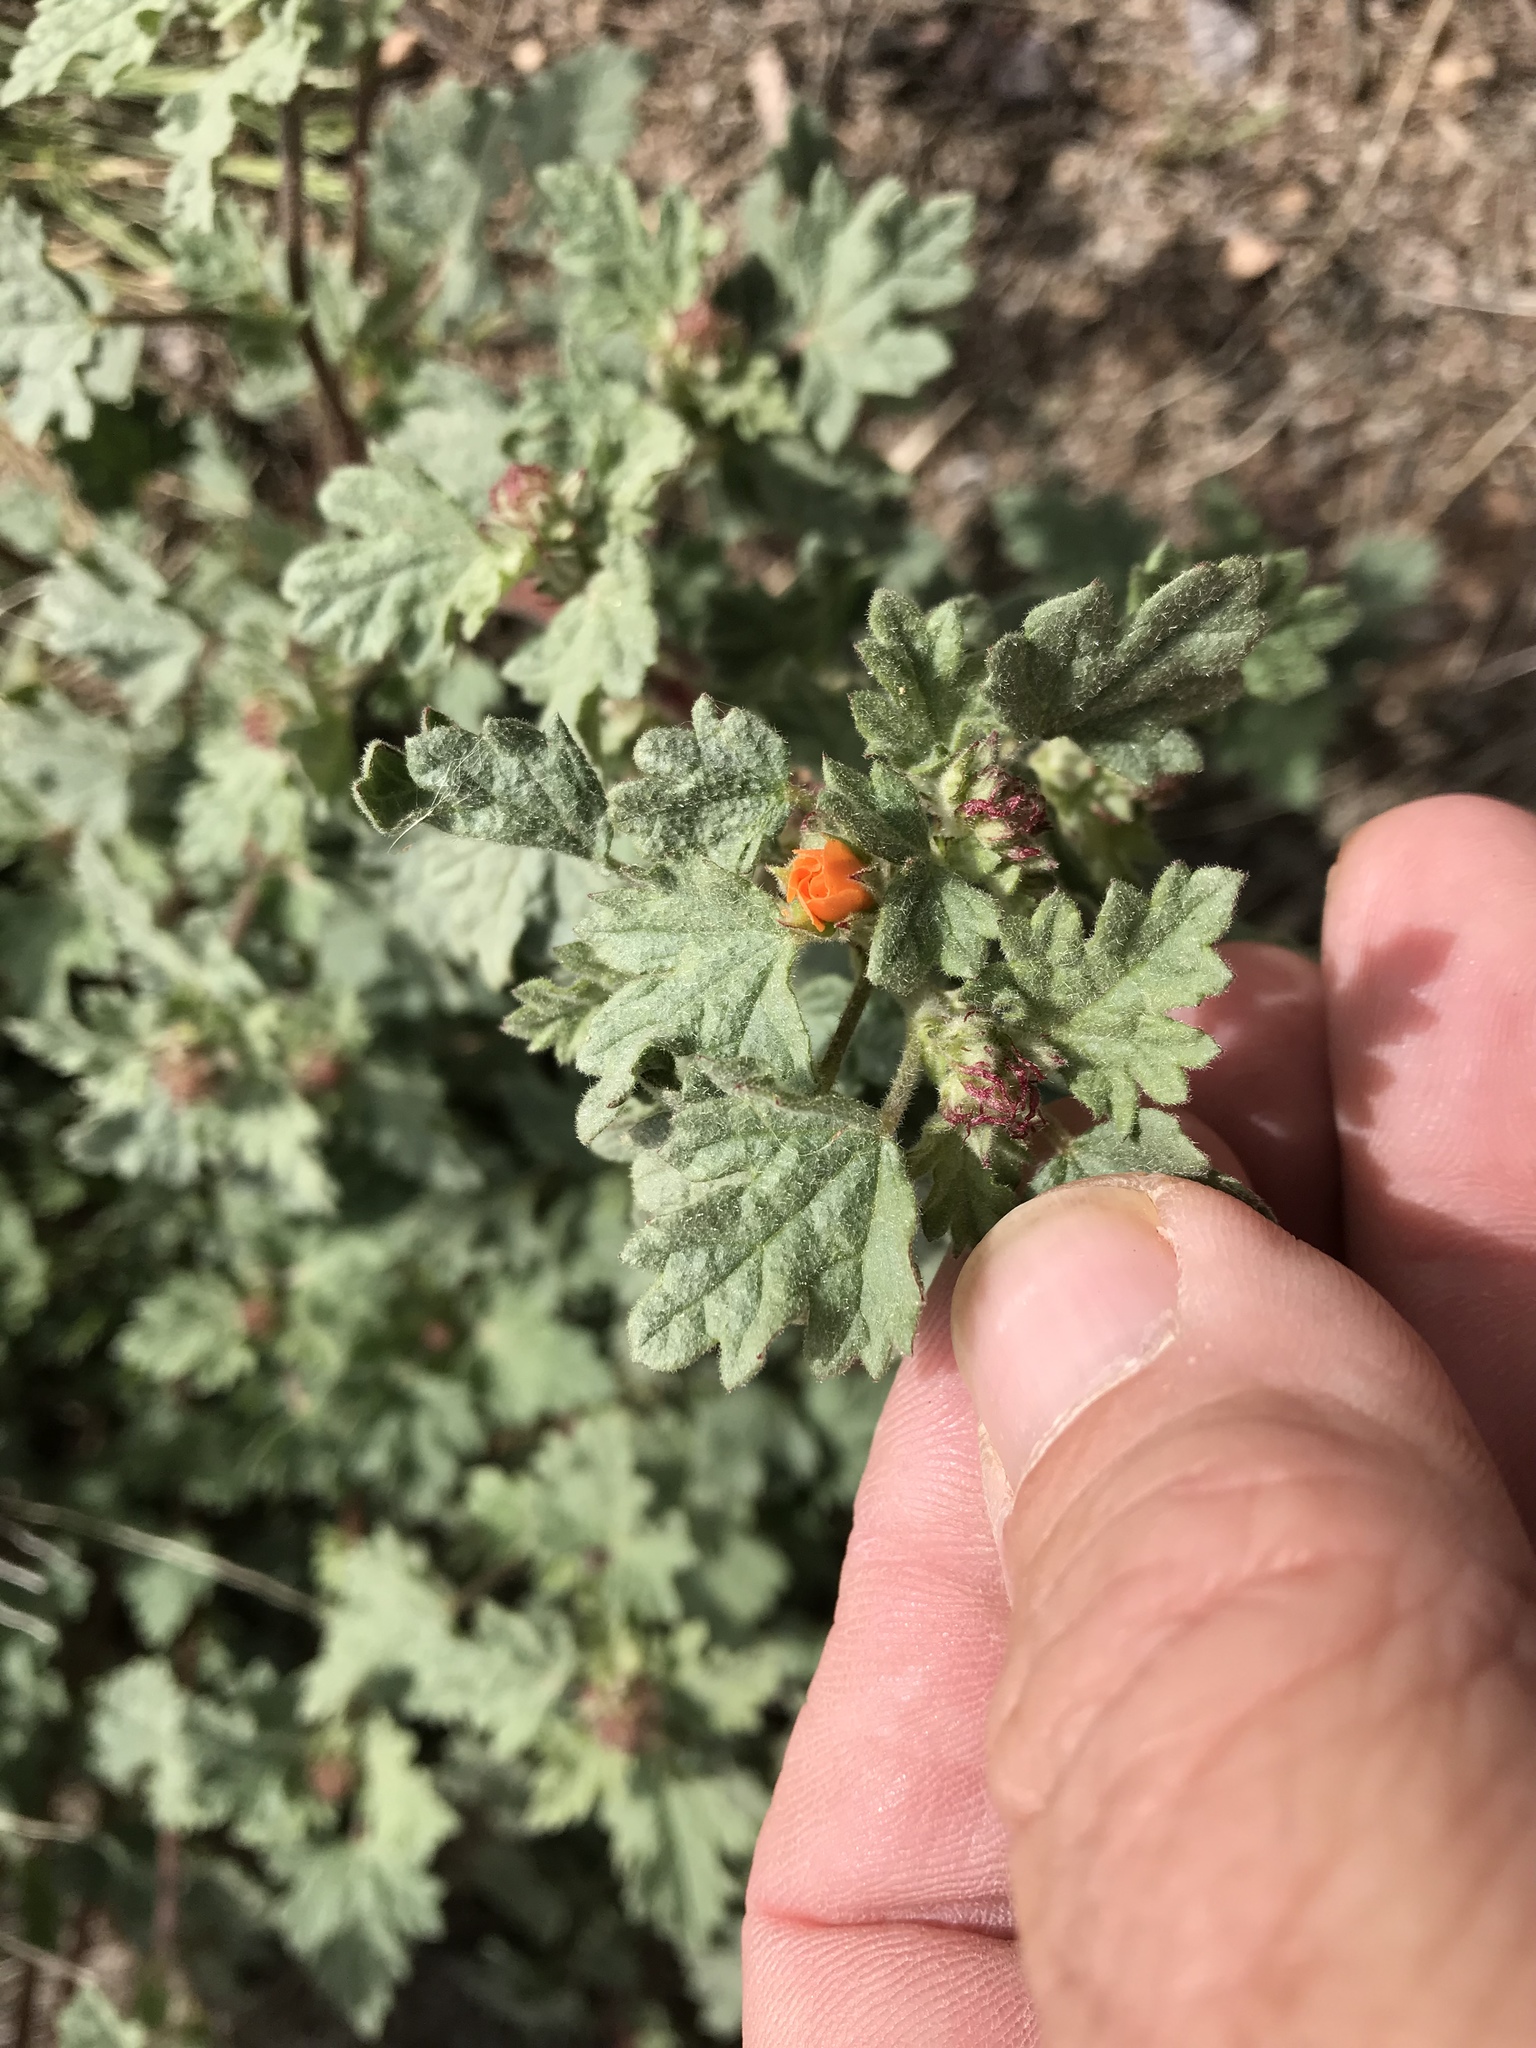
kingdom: Plantae
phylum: Tracheophyta
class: Magnoliopsida
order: Malvales
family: Malvaceae
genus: Sphaeralcea
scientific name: Sphaeralcea ambigua
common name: Apricot globe-mallow
